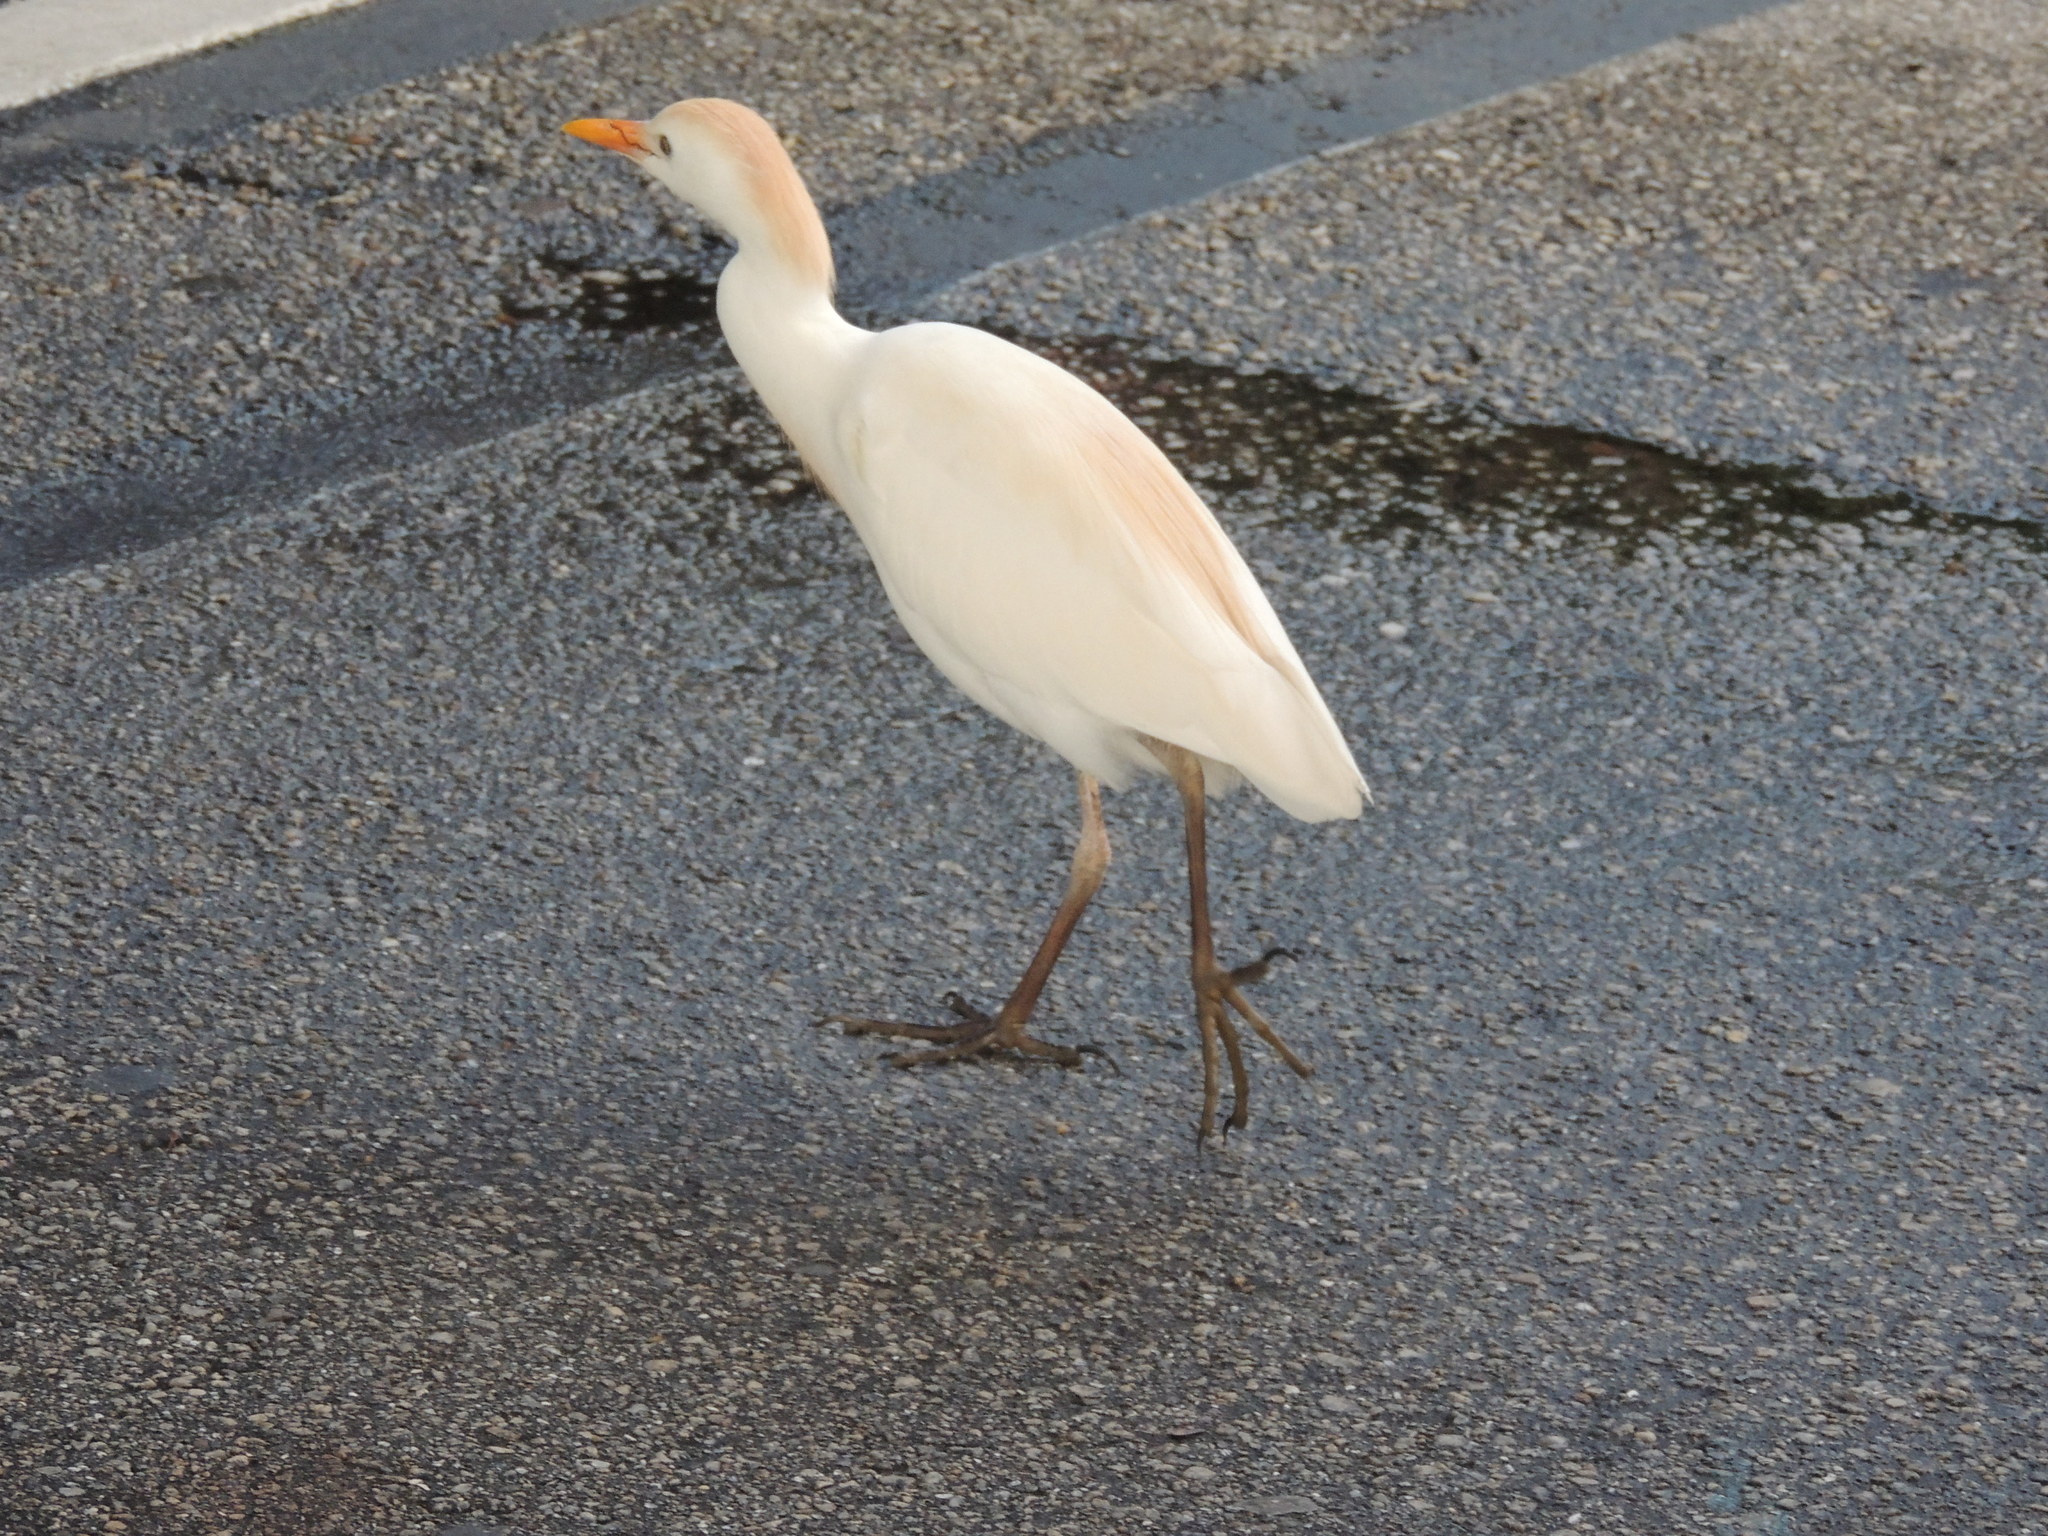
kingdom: Animalia
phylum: Chordata
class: Aves
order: Pelecaniformes
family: Ardeidae
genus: Bubulcus
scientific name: Bubulcus ibis
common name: Cattle egret
